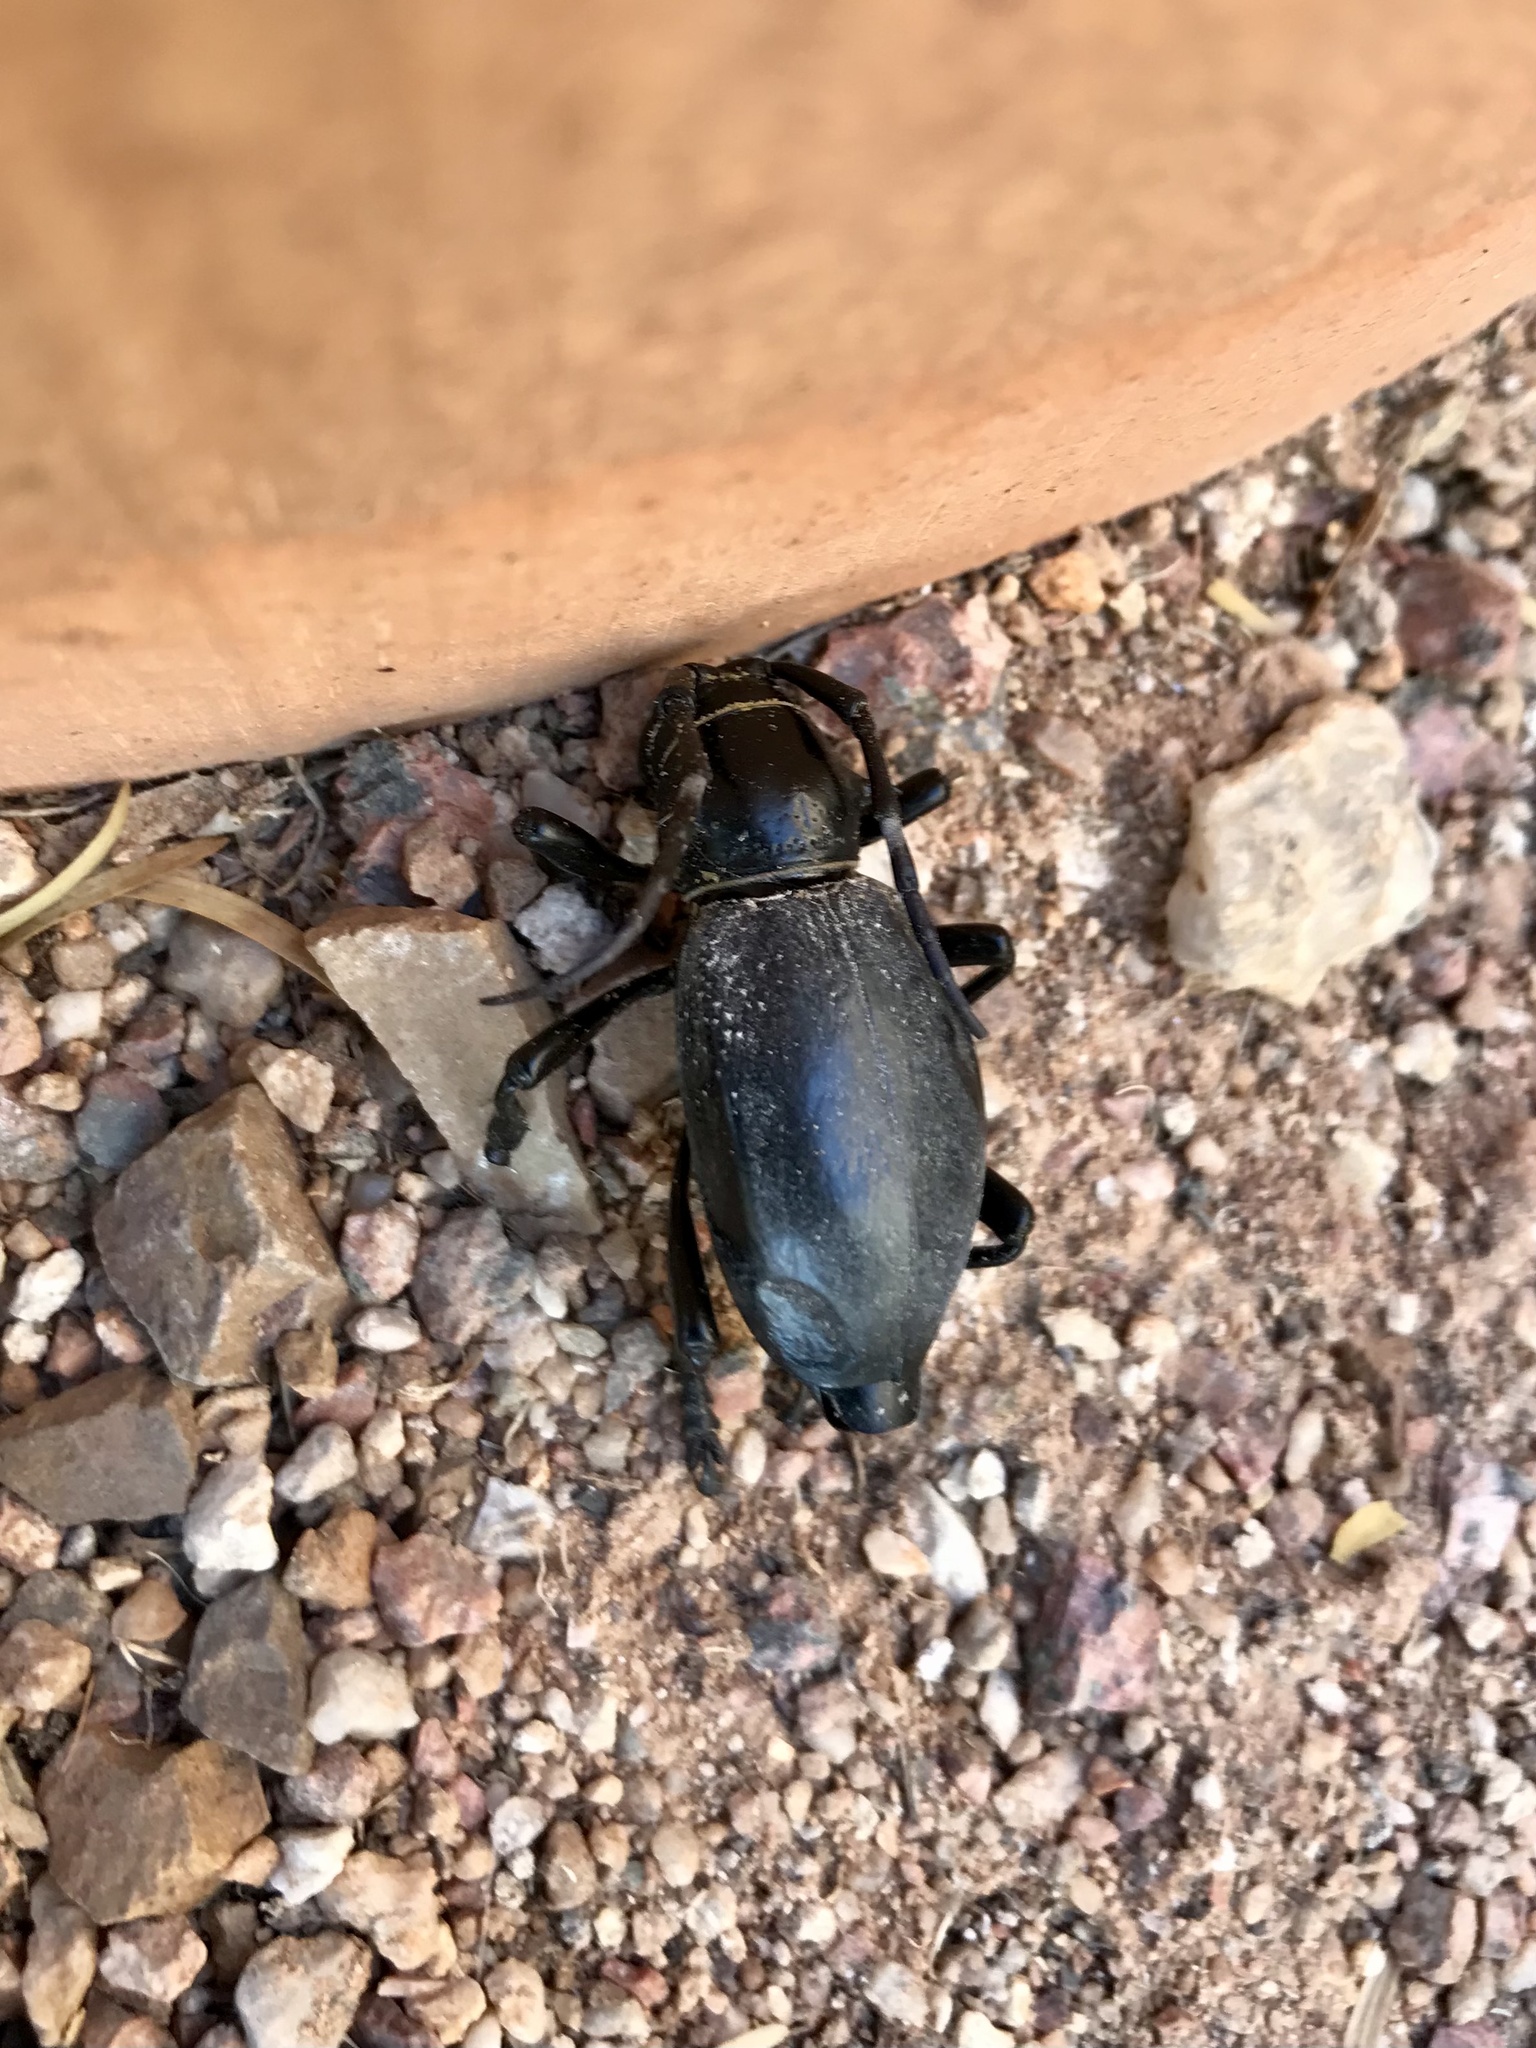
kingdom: Animalia
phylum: Arthropoda
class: Insecta
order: Coleoptera
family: Cerambycidae
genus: Moneilema
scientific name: Moneilema gigas
